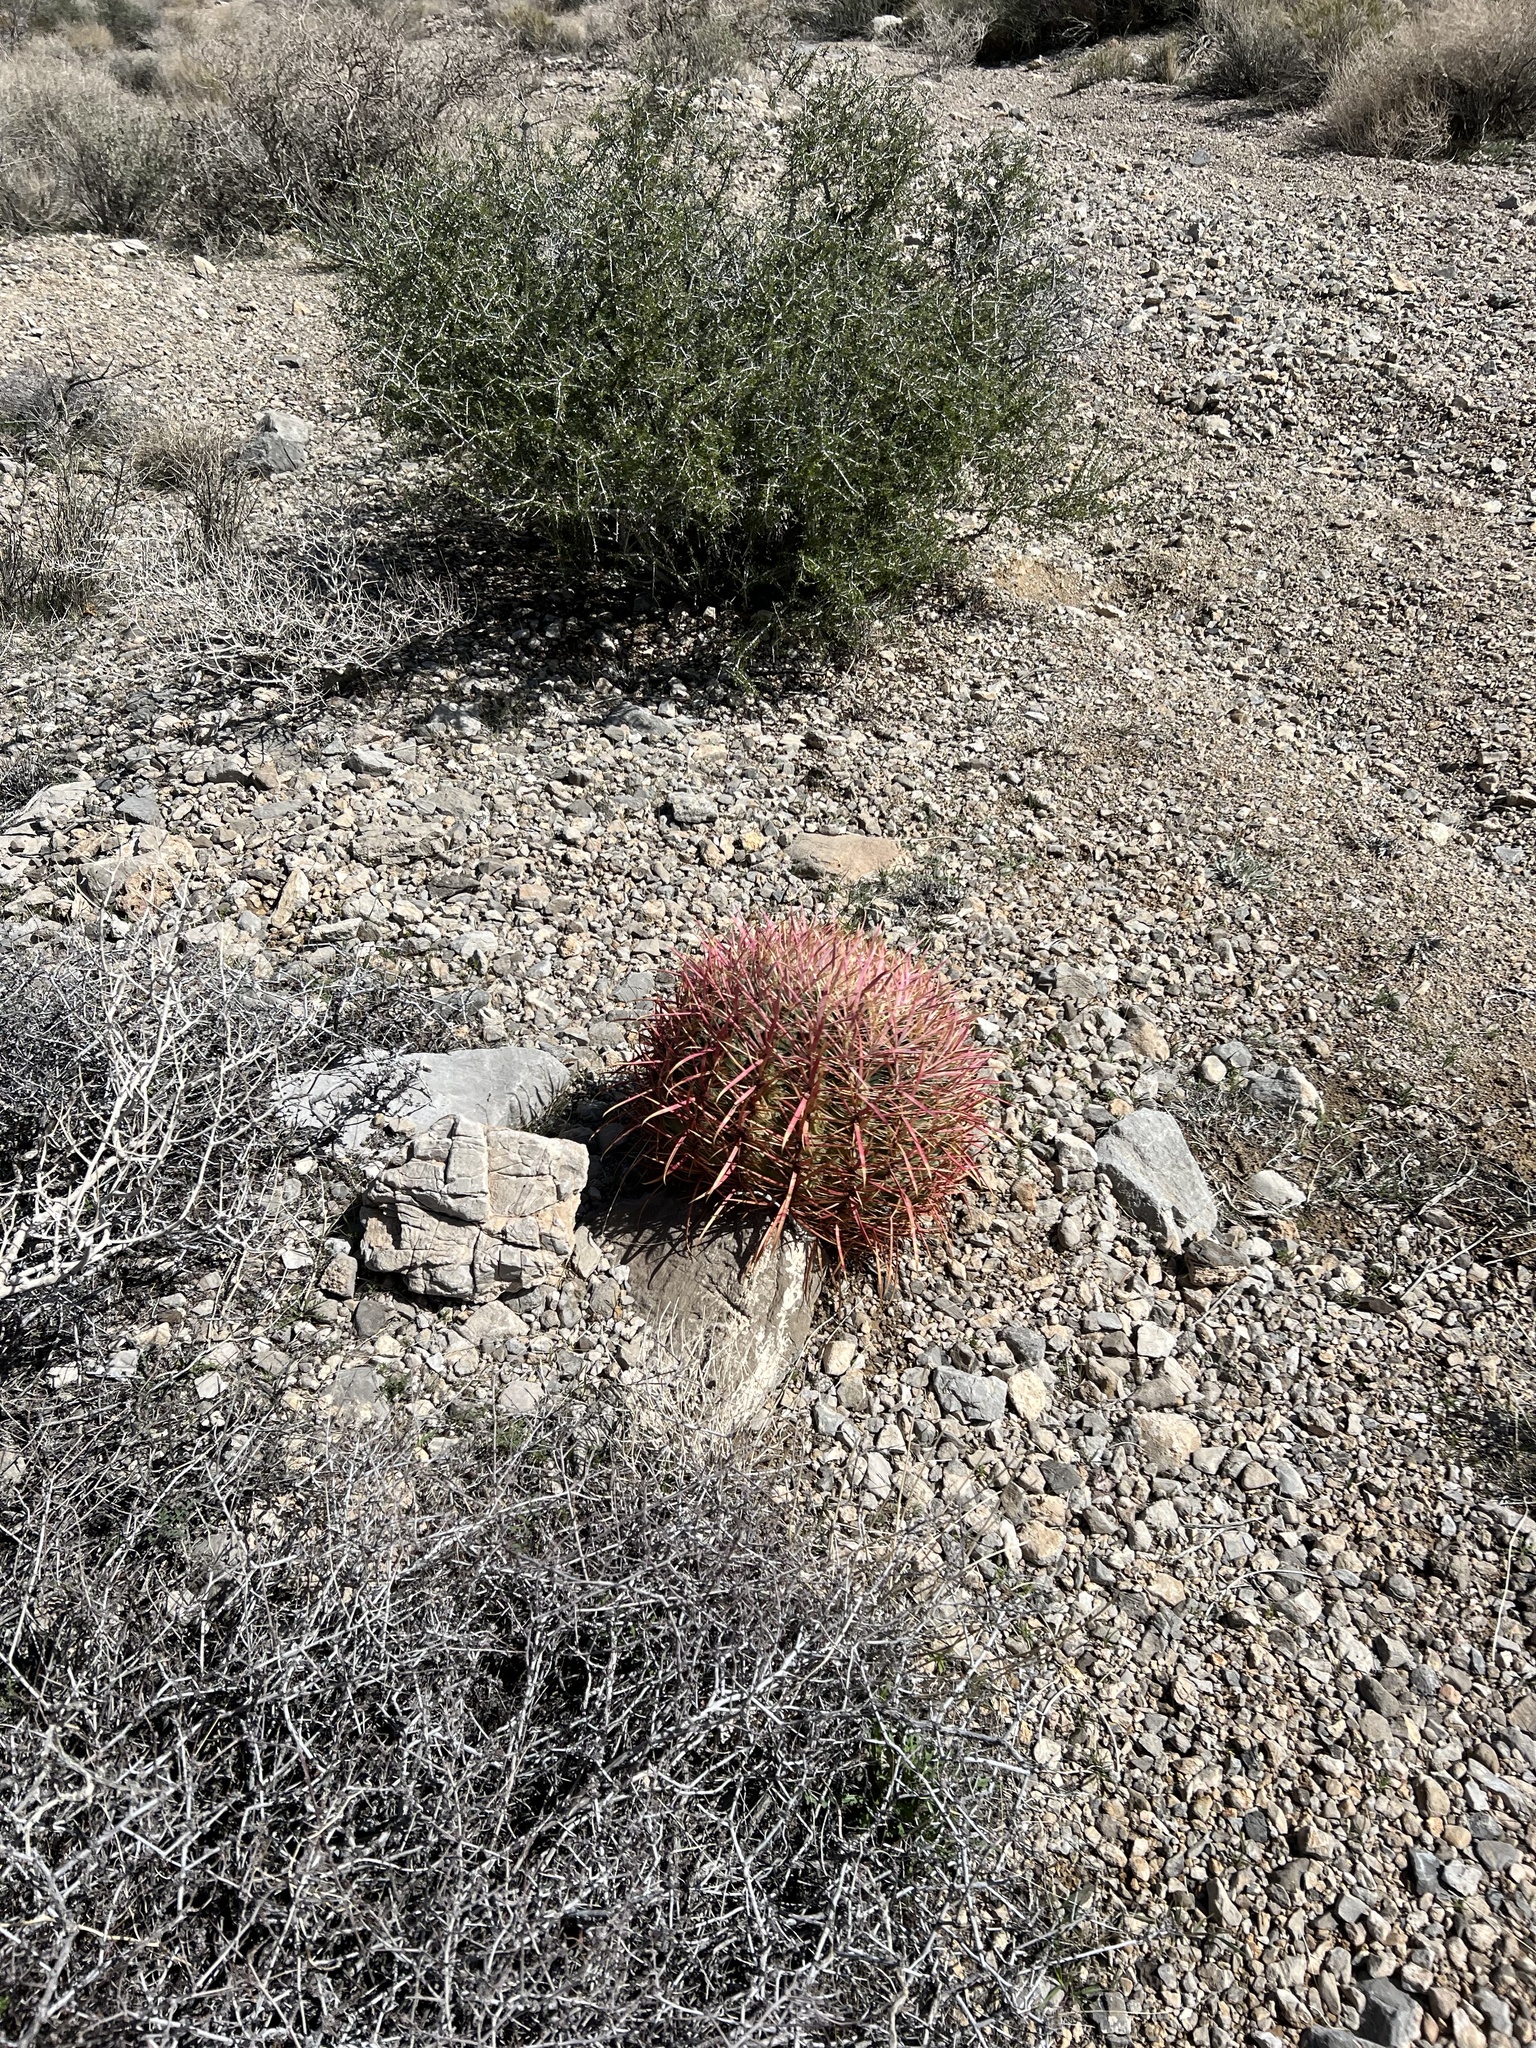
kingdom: Plantae
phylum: Tracheophyta
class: Magnoliopsida
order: Caryophyllales
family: Cactaceae
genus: Ferocactus
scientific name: Ferocactus cylindraceus
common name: California barrel cactus
